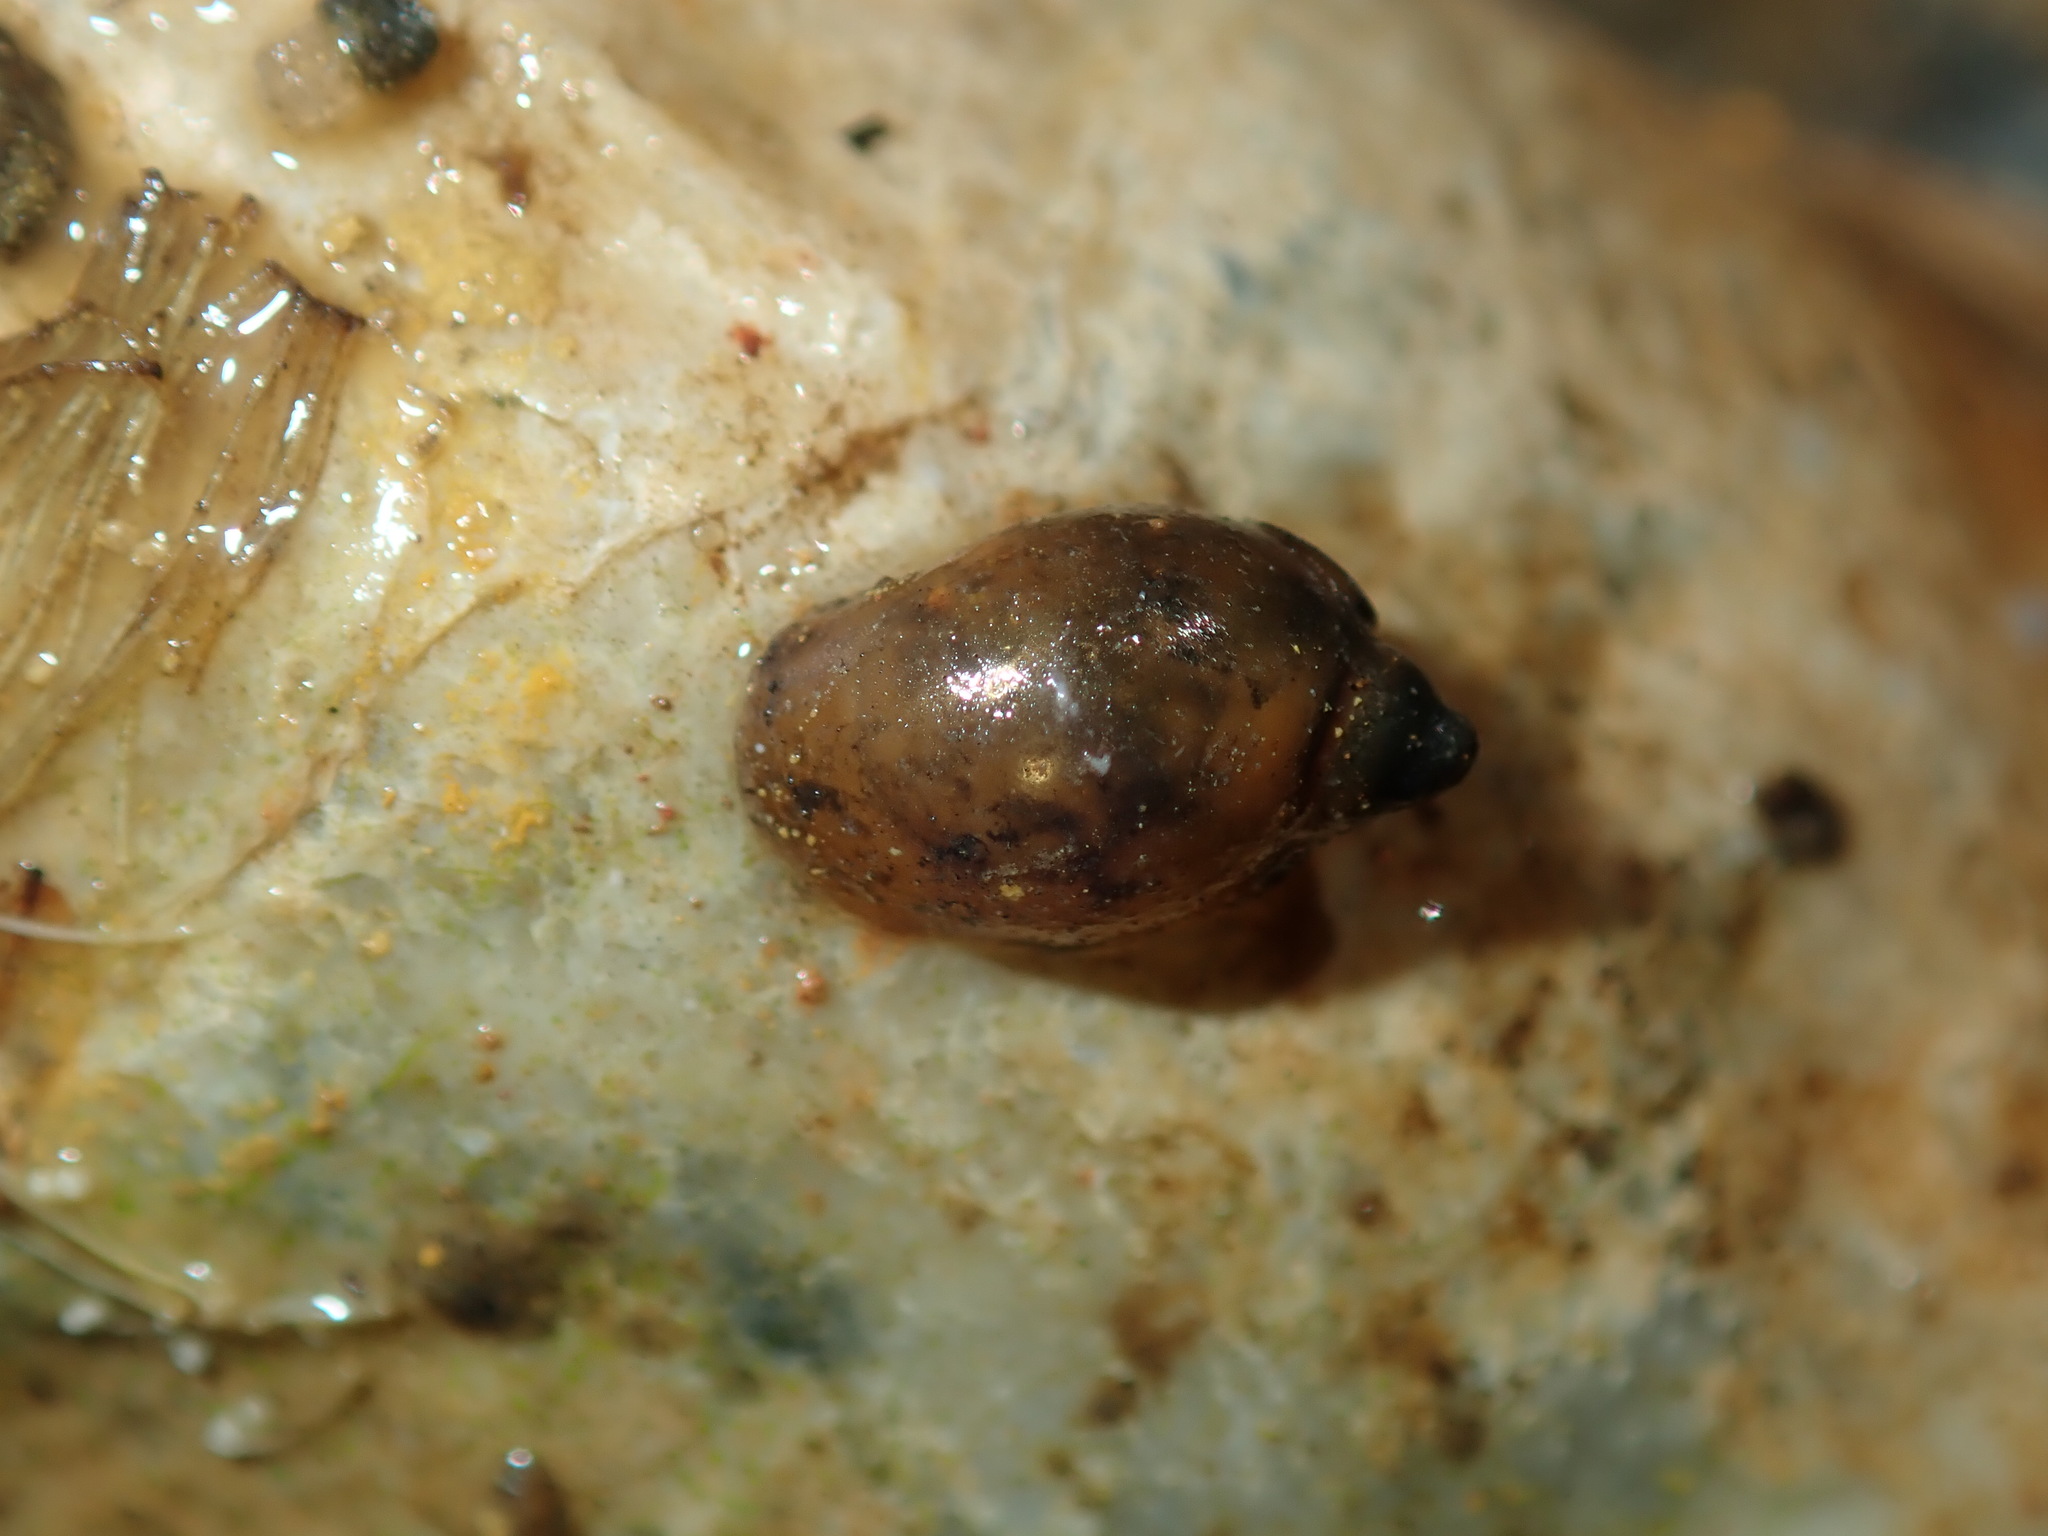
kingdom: Animalia
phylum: Mollusca
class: Gastropoda
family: Physidae
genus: Physella
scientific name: Physella acuta
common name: European physa
